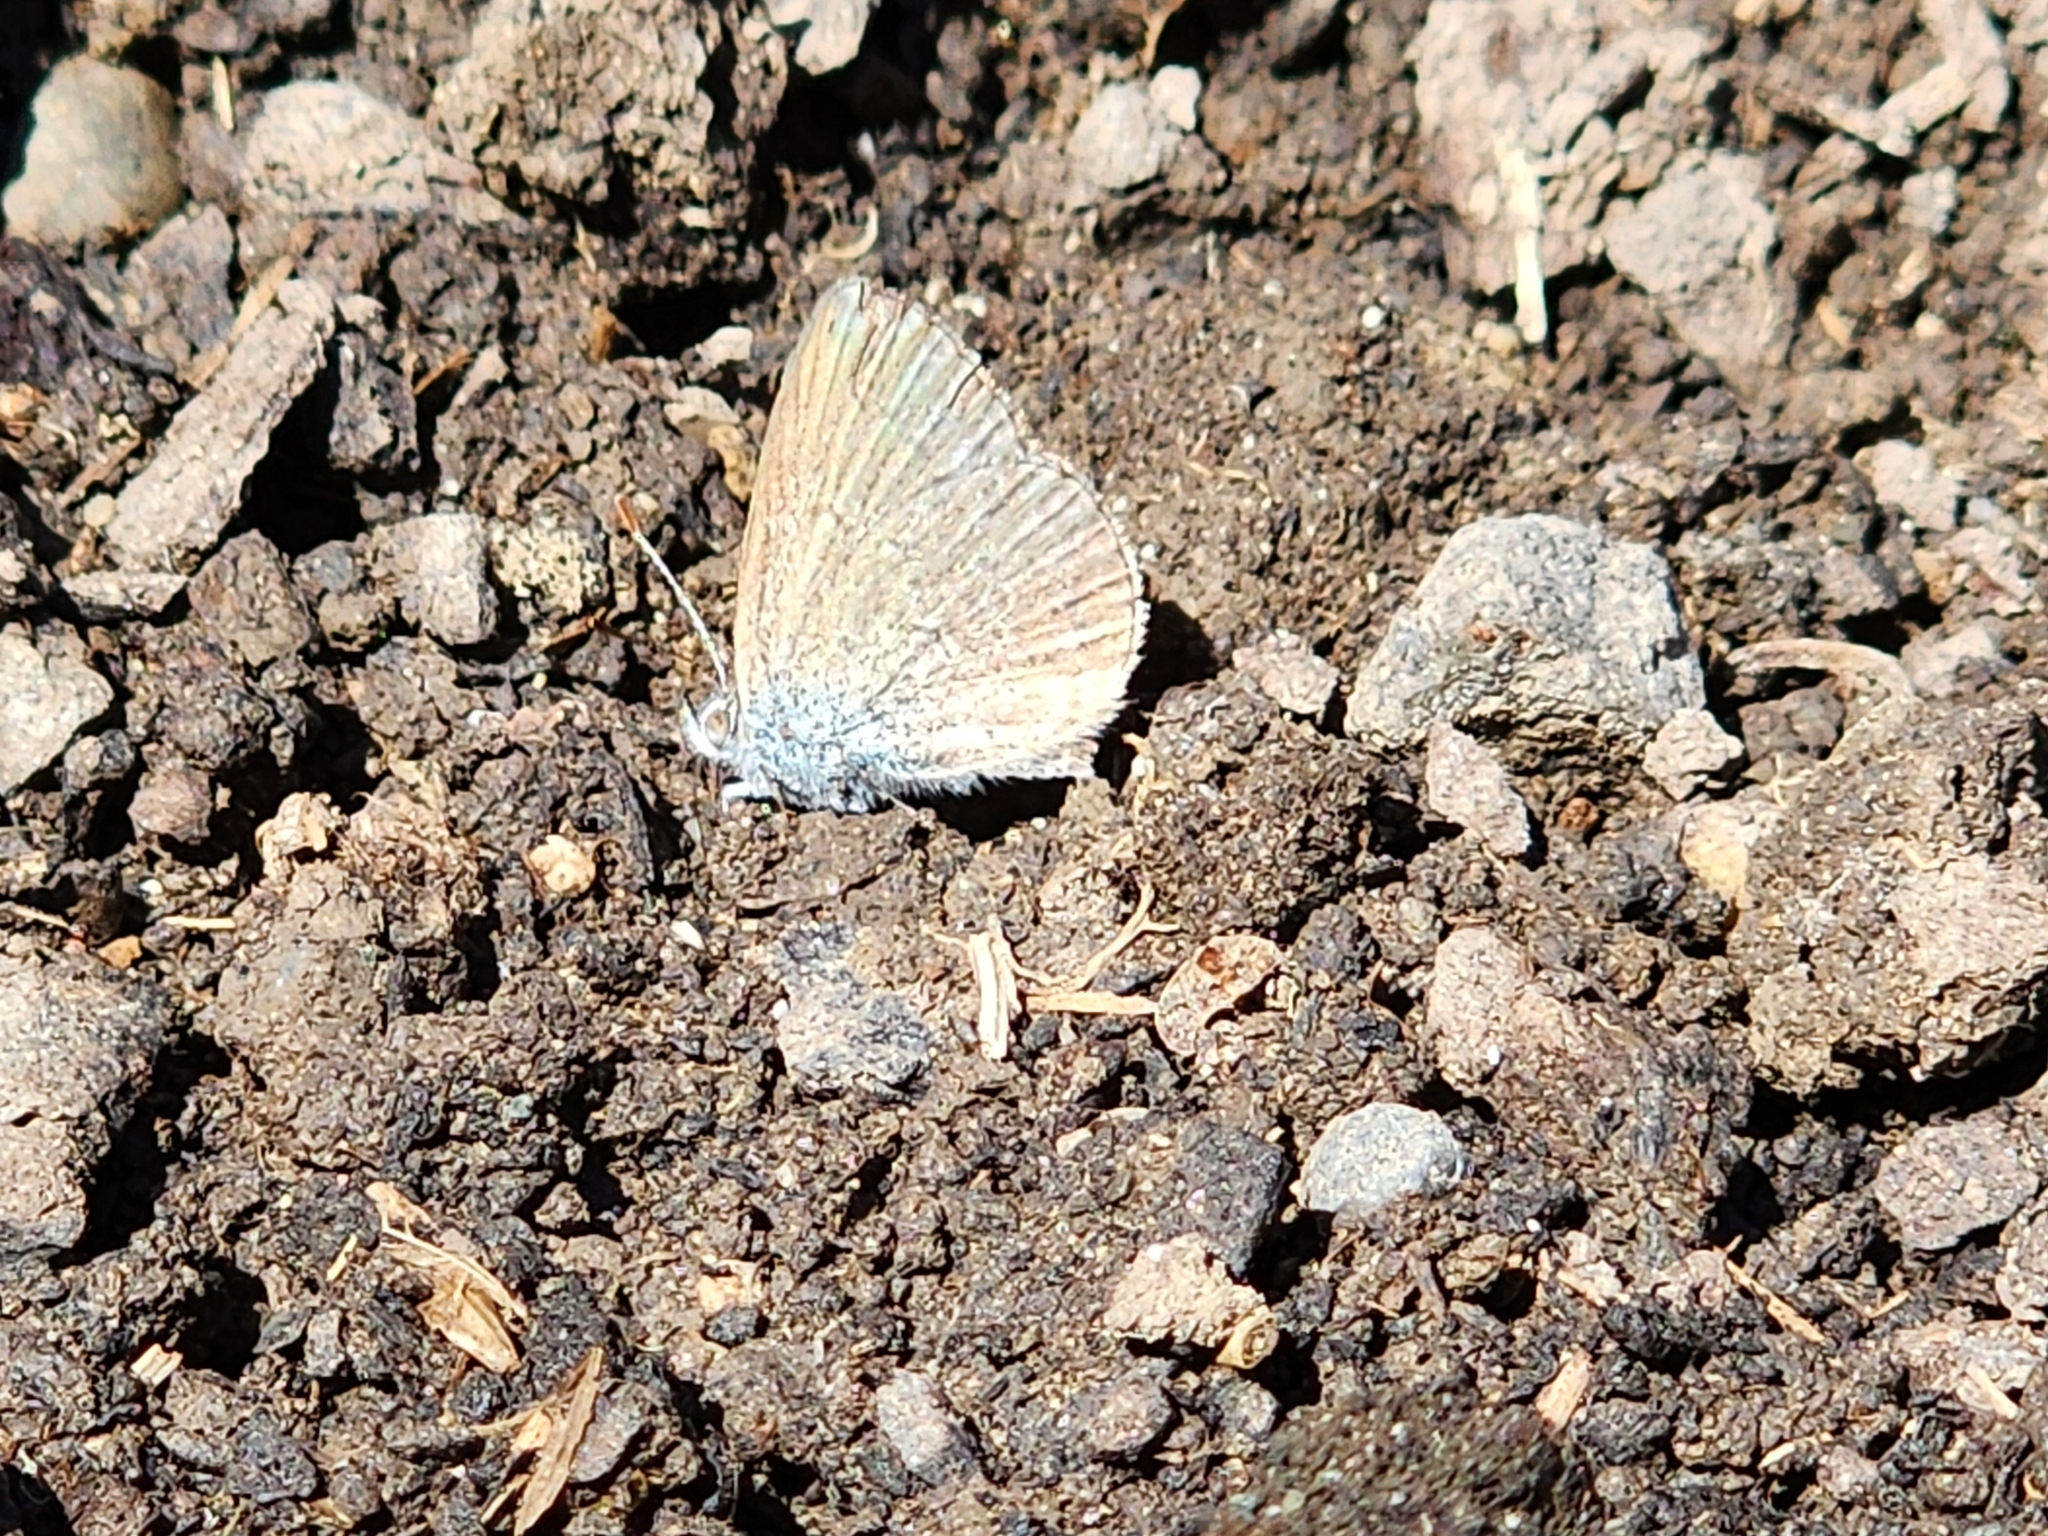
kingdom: Animalia
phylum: Arthropoda
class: Insecta
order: Lepidoptera
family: Lycaenidae
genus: Zizina
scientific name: Zizina labradus
